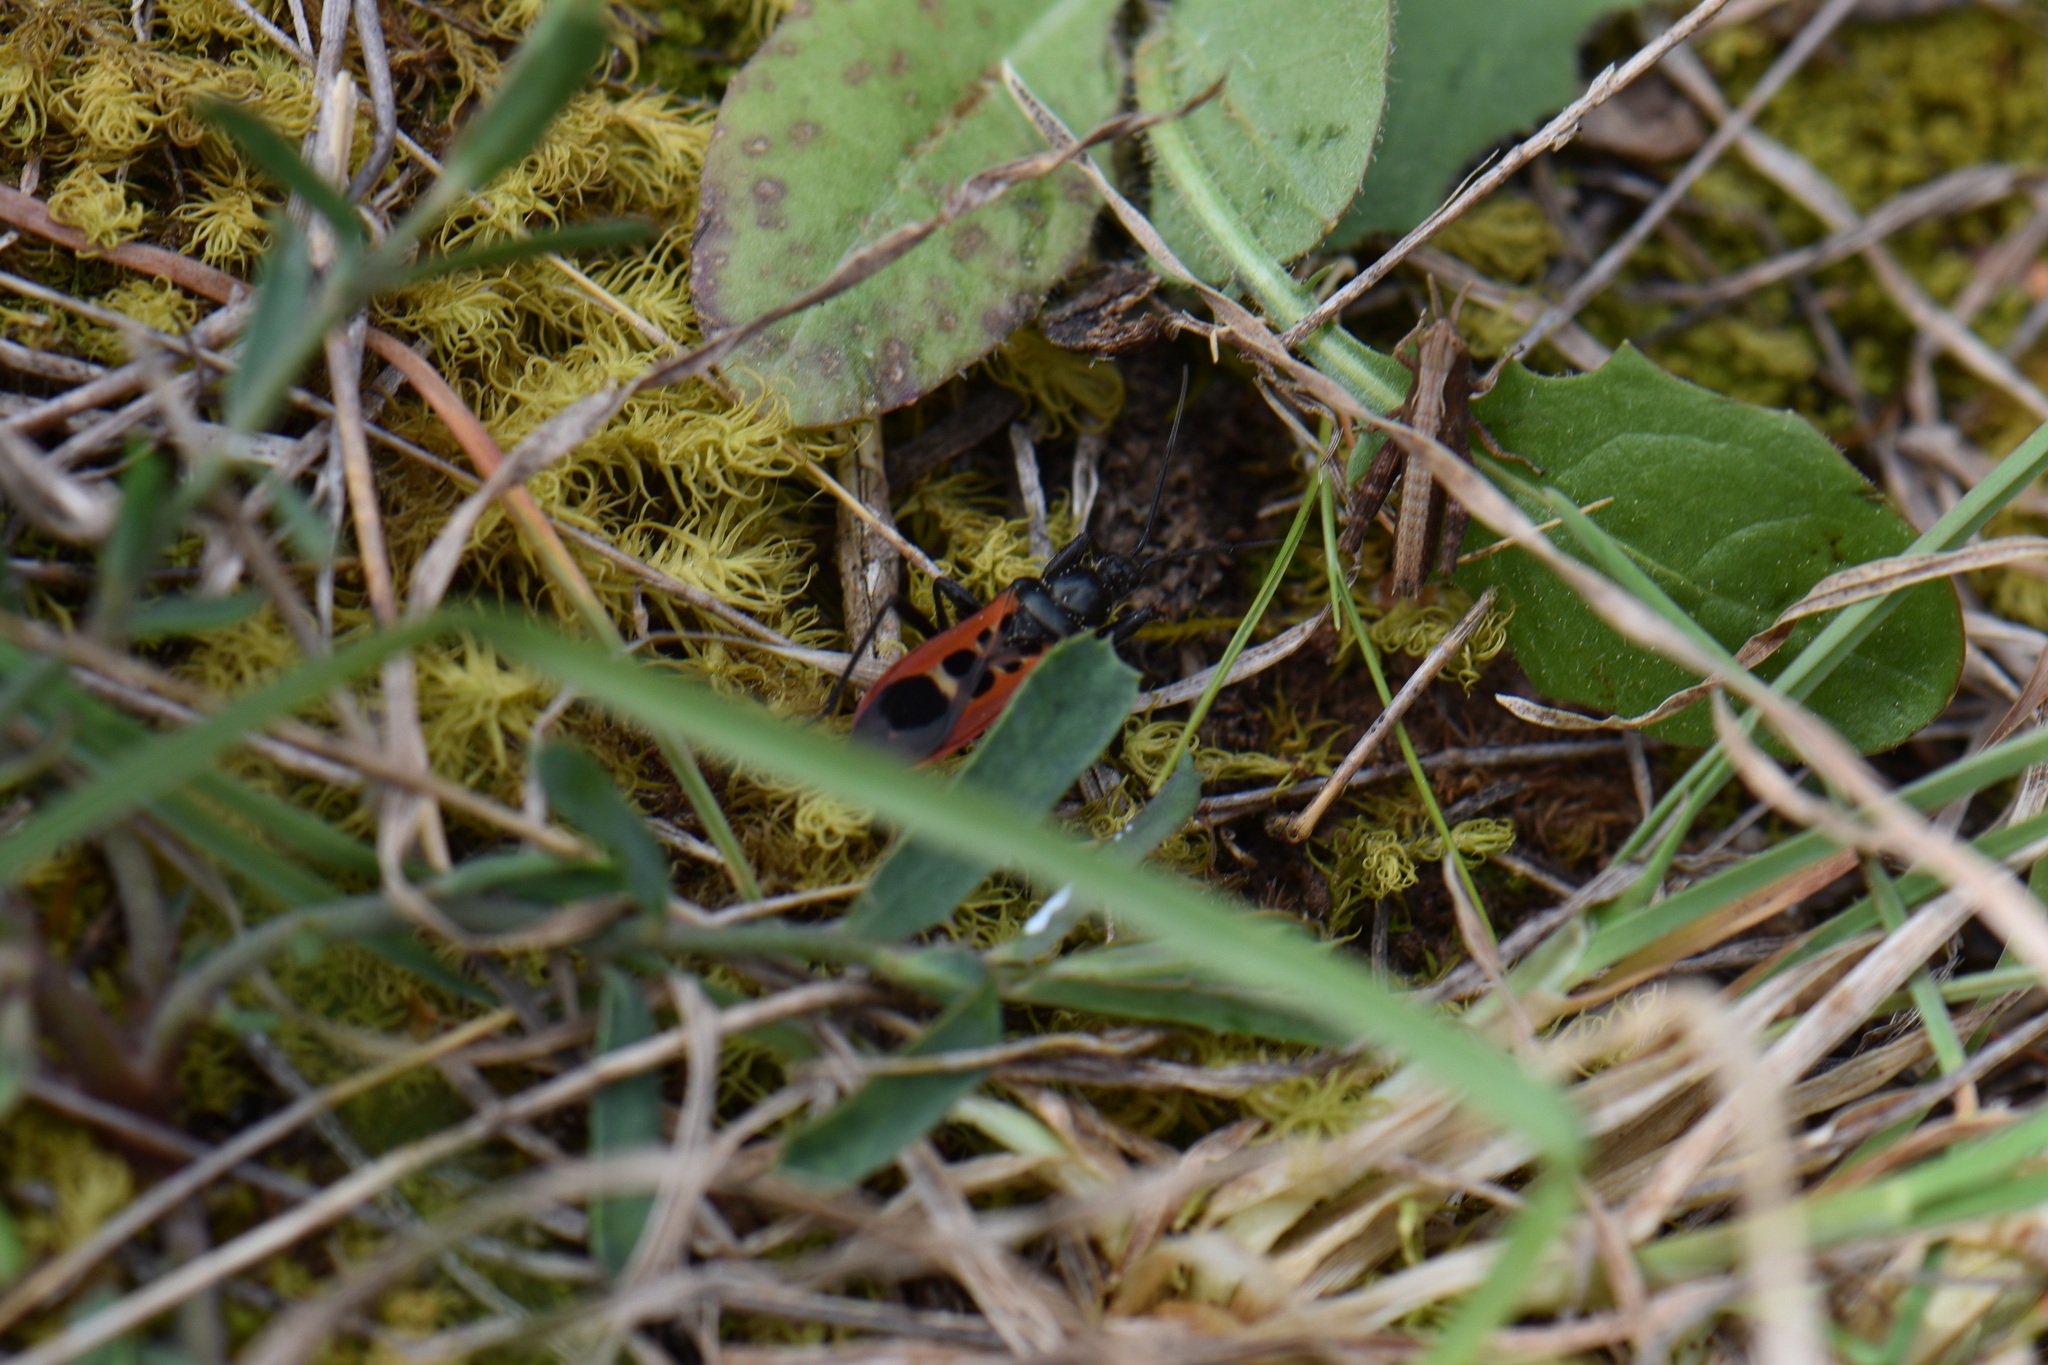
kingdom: Animalia
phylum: Arthropoda
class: Insecta
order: Hemiptera
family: Reduviidae
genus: Peirates
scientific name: Peirates stridulus
